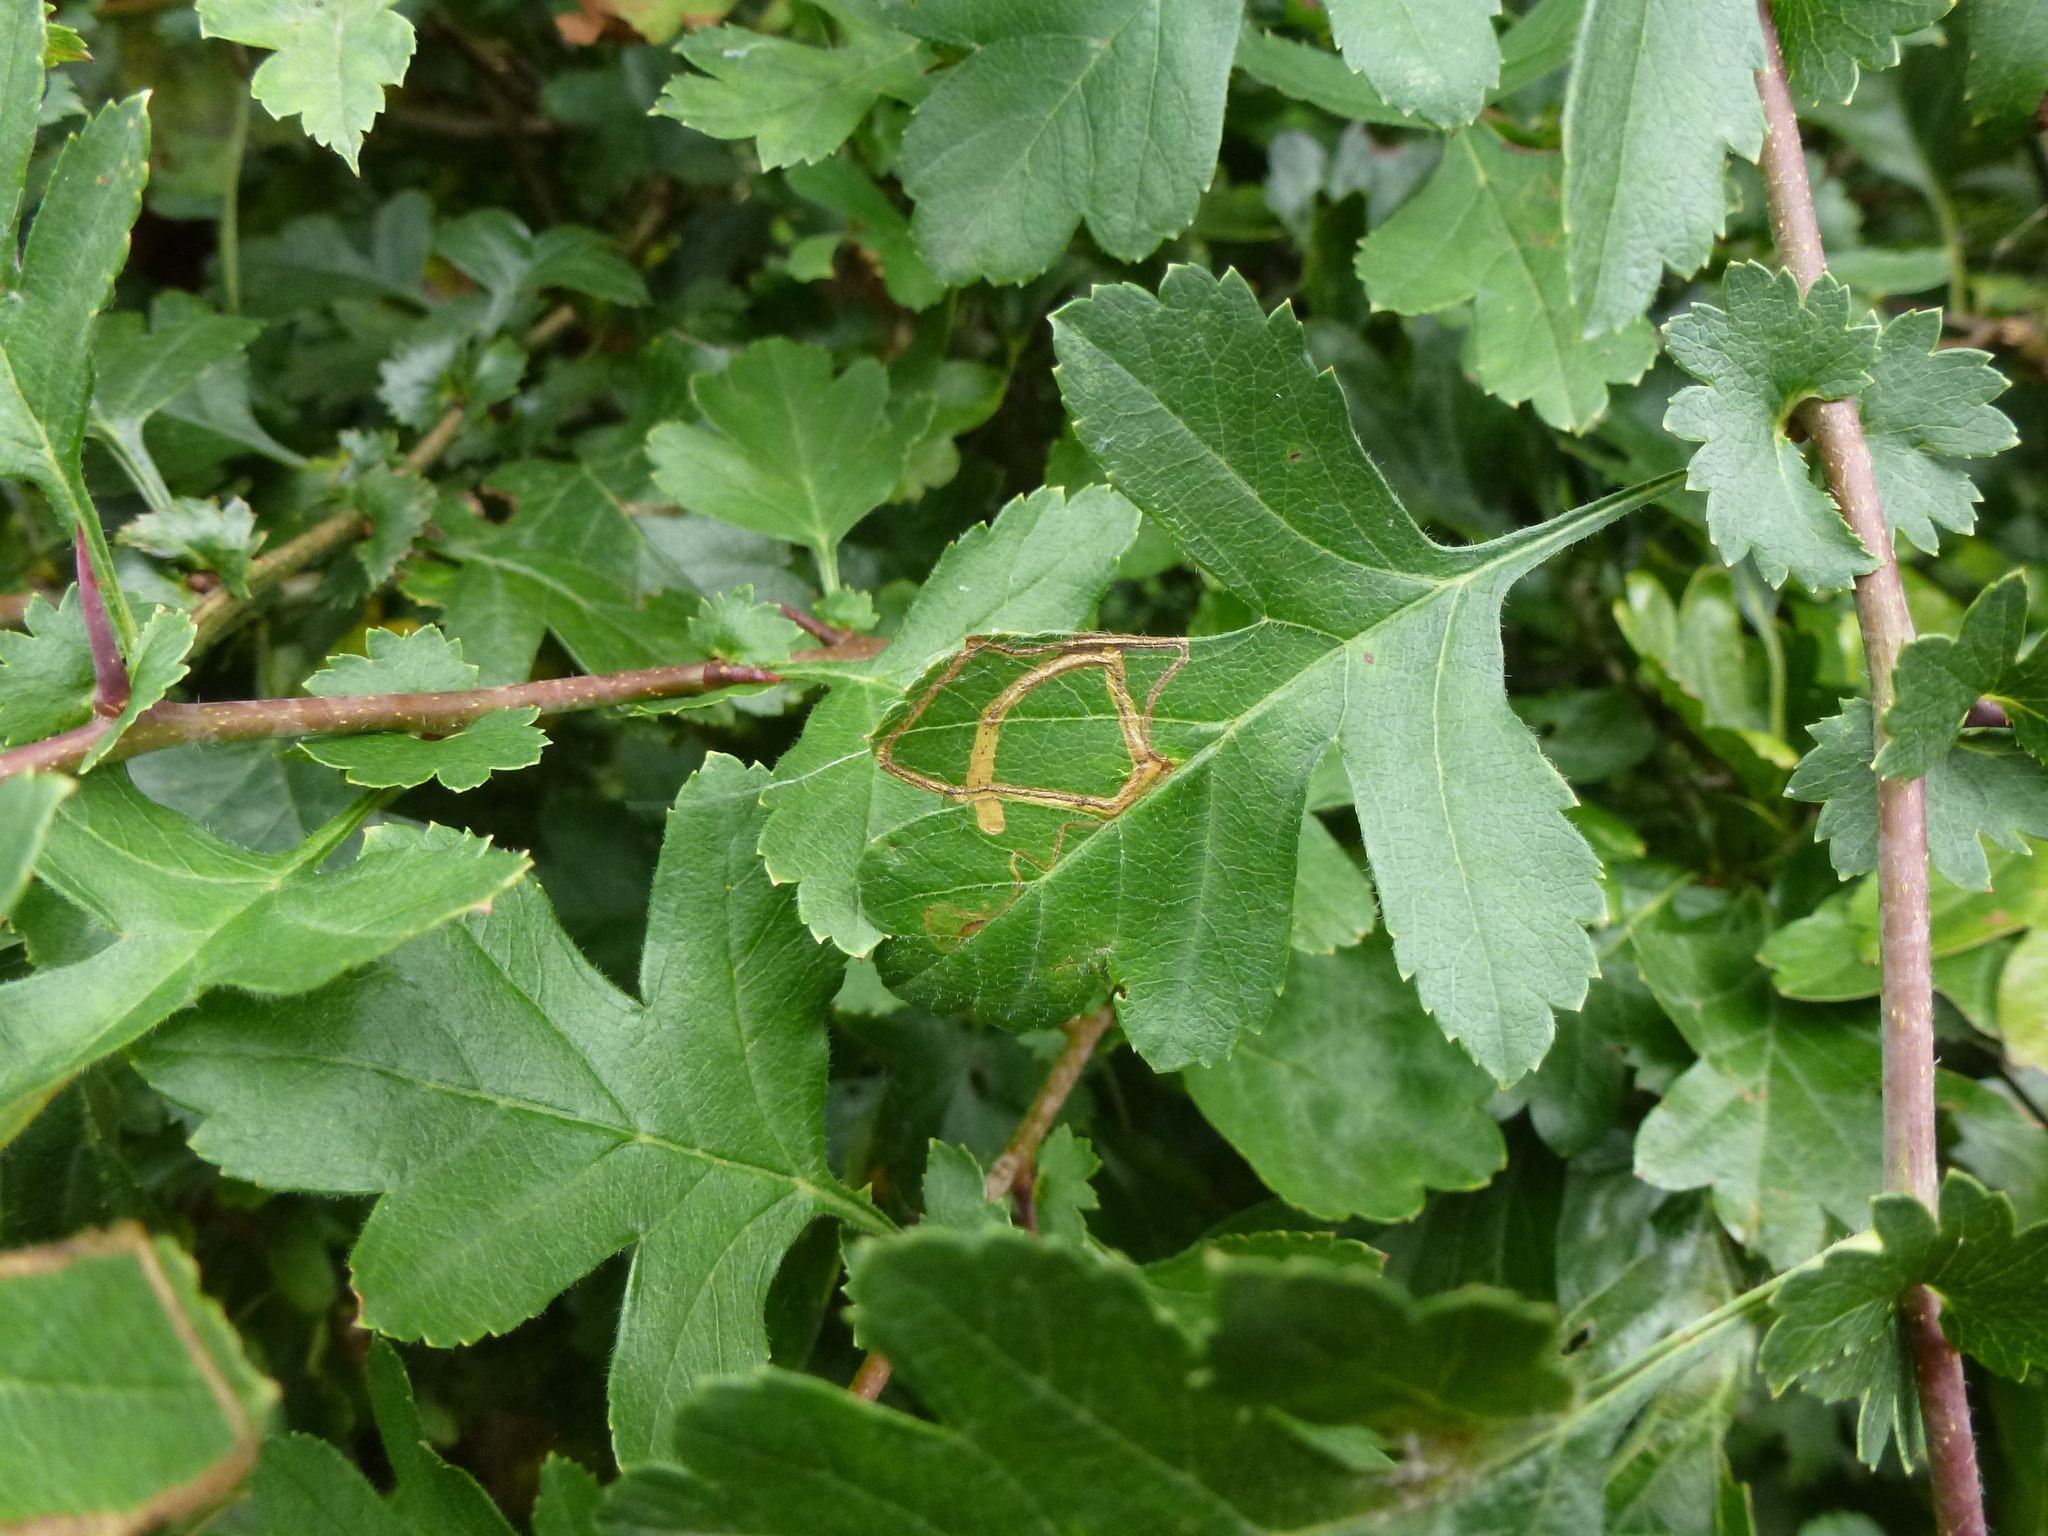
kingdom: Animalia
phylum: Arthropoda
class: Insecta
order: Lepidoptera
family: Lyonetiidae
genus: Lyonetia
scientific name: Lyonetia clerkella
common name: Apple leaf miner
